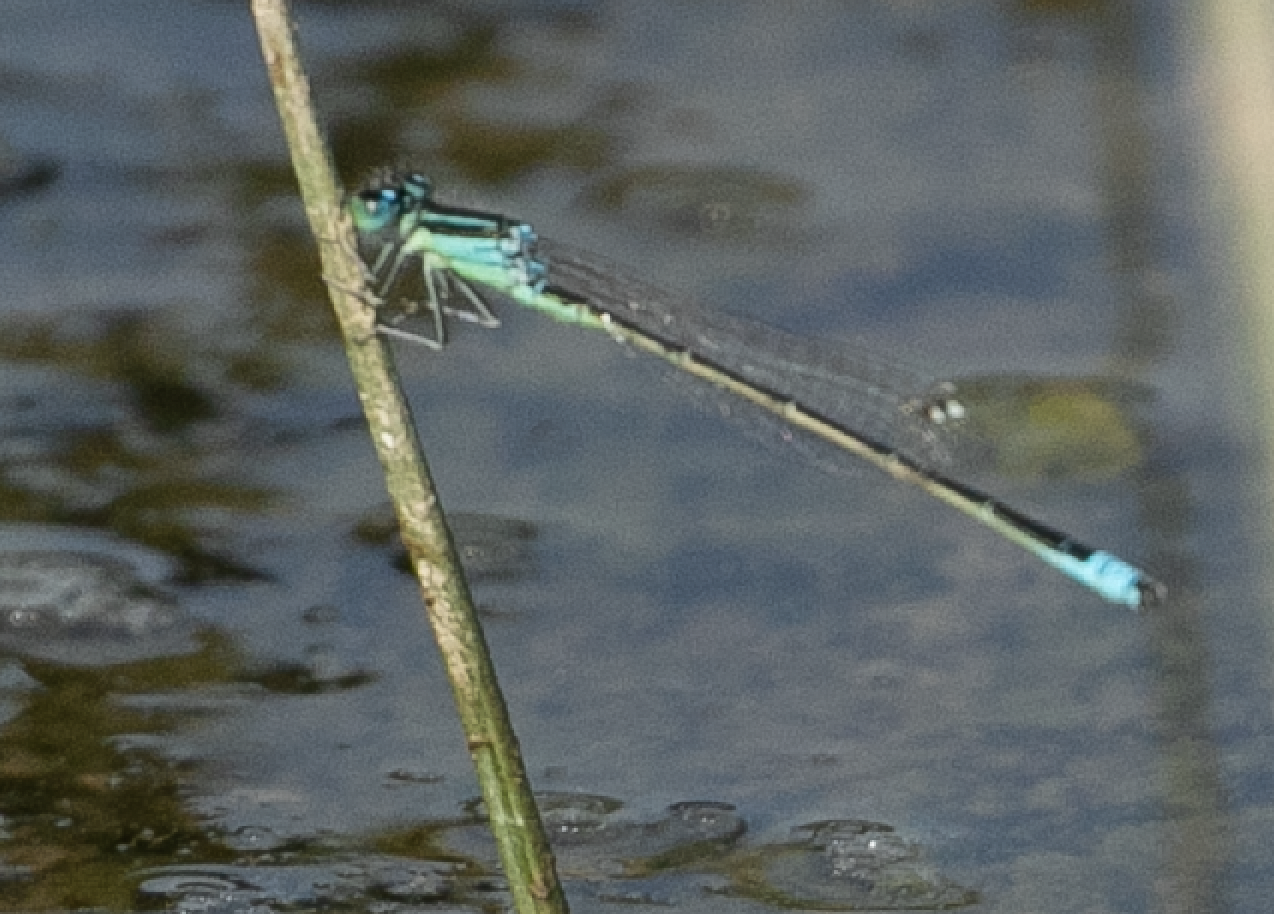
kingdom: Animalia
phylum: Arthropoda
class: Insecta
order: Odonata
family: Coenagrionidae
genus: Ischnura
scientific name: Ischnura pumilio
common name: Scarce blue-tailed damselfly
